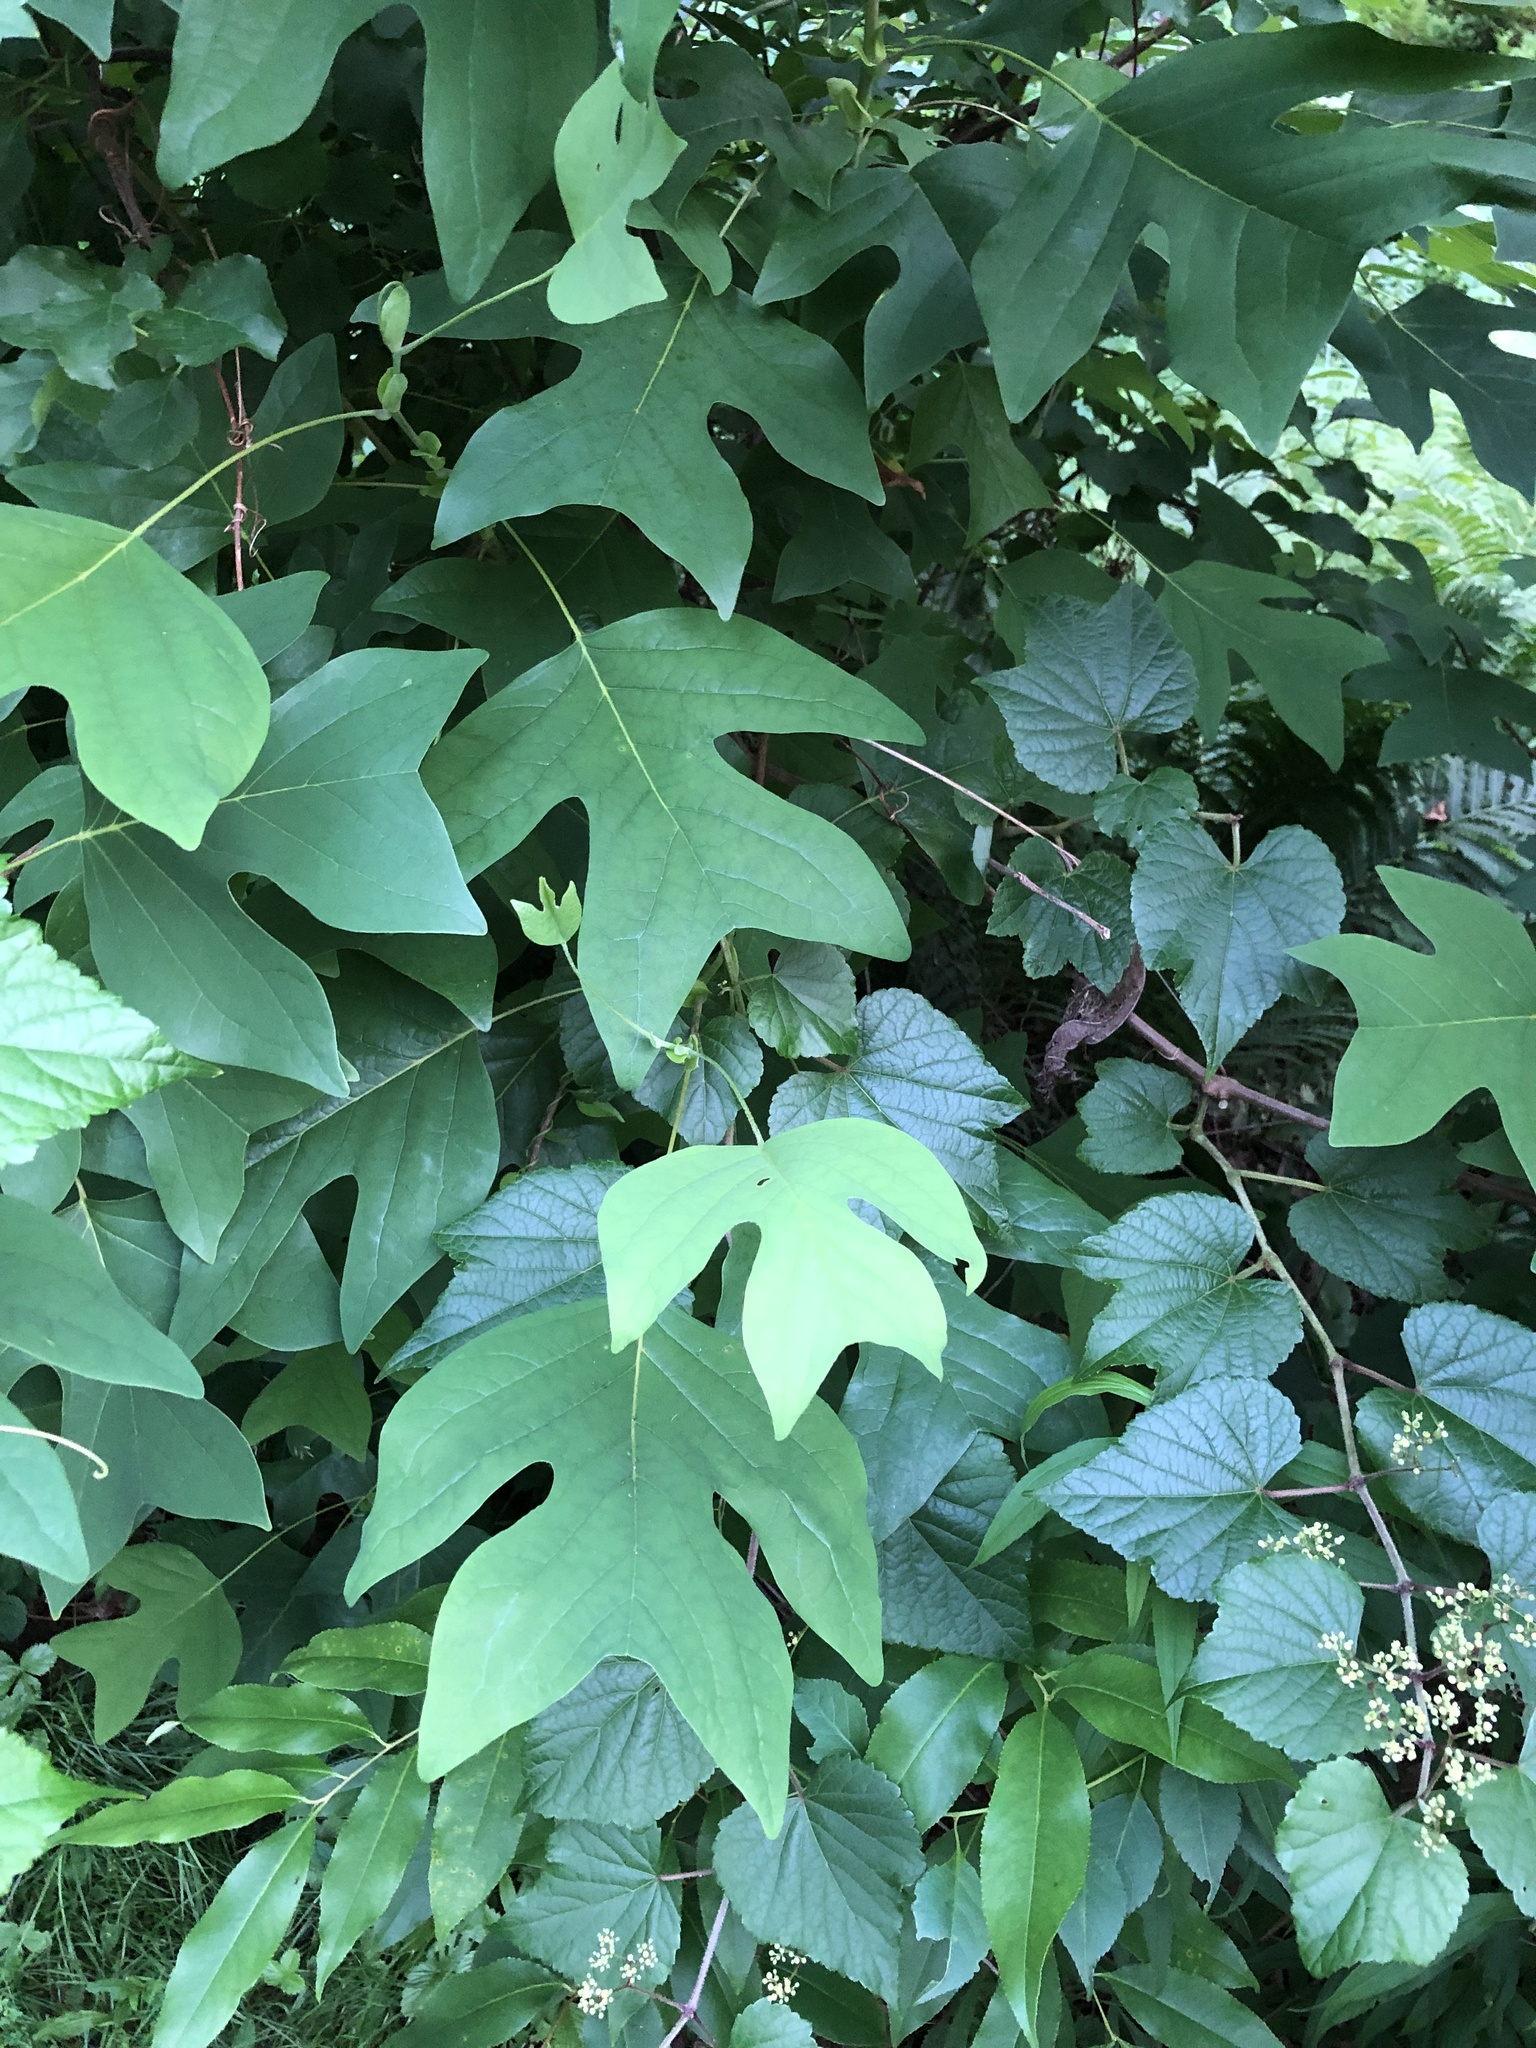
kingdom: Plantae
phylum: Tracheophyta
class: Magnoliopsida
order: Magnoliales
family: Magnoliaceae
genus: Liriodendron
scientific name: Liriodendron tulipifera
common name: Tulip tree
